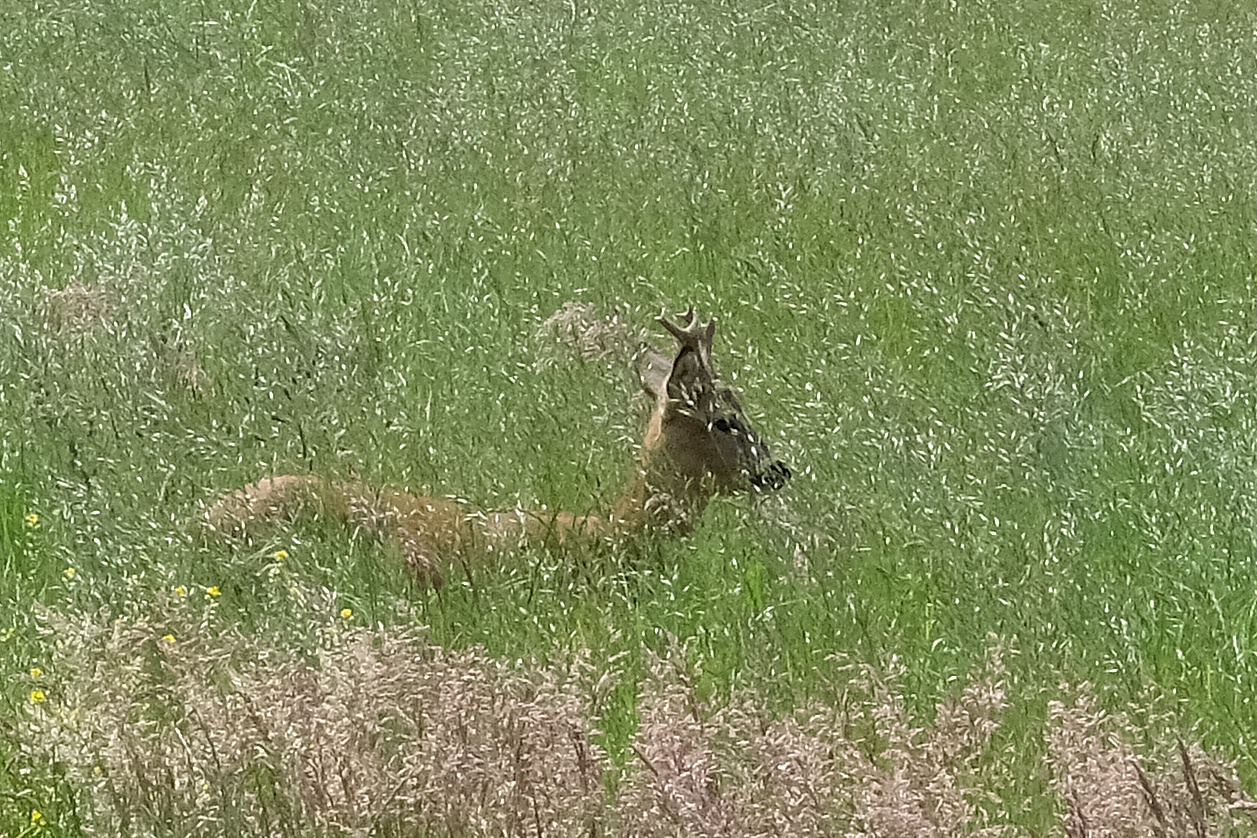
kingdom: Animalia
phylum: Chordata
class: Mammalia
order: Artiodactyla
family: Cervidae
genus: Capreolus
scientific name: Capreolus capreolus
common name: Western roe deer
